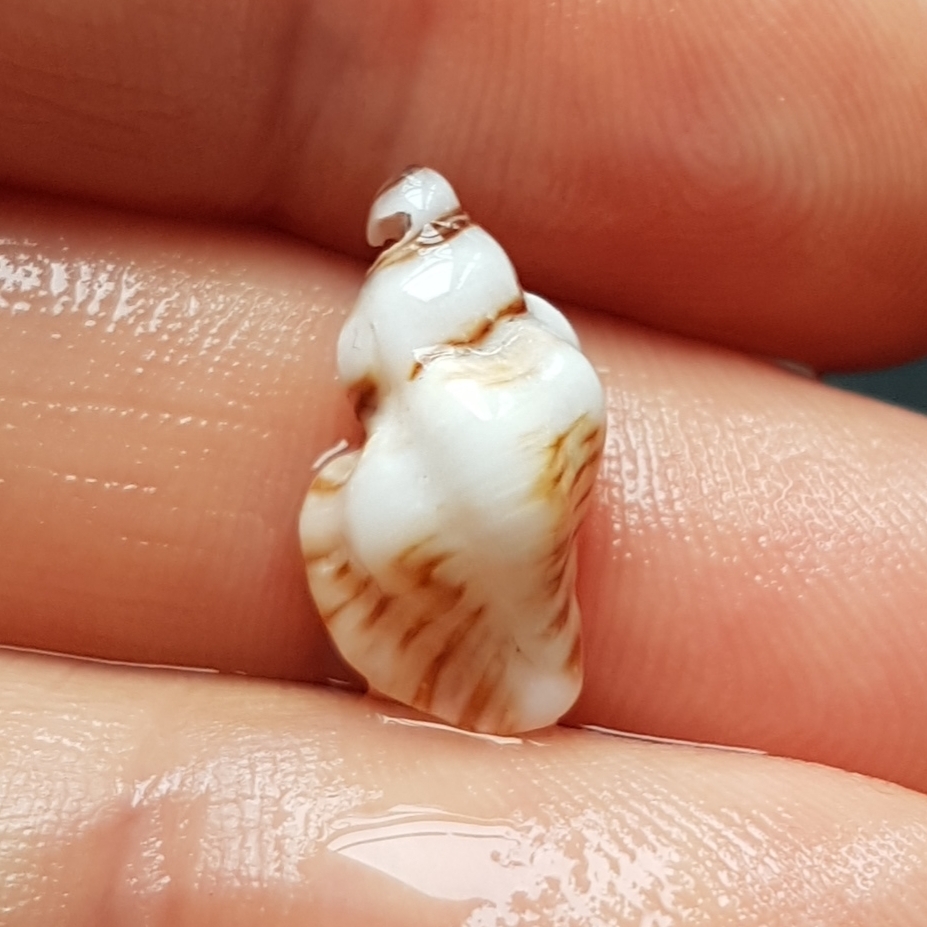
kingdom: Animalia
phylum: Mollusca
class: Gastropoda
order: Neogastropoda
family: Muricidae
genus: Ocenebra
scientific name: Ocenebra erinaceus
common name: European sting winkle
